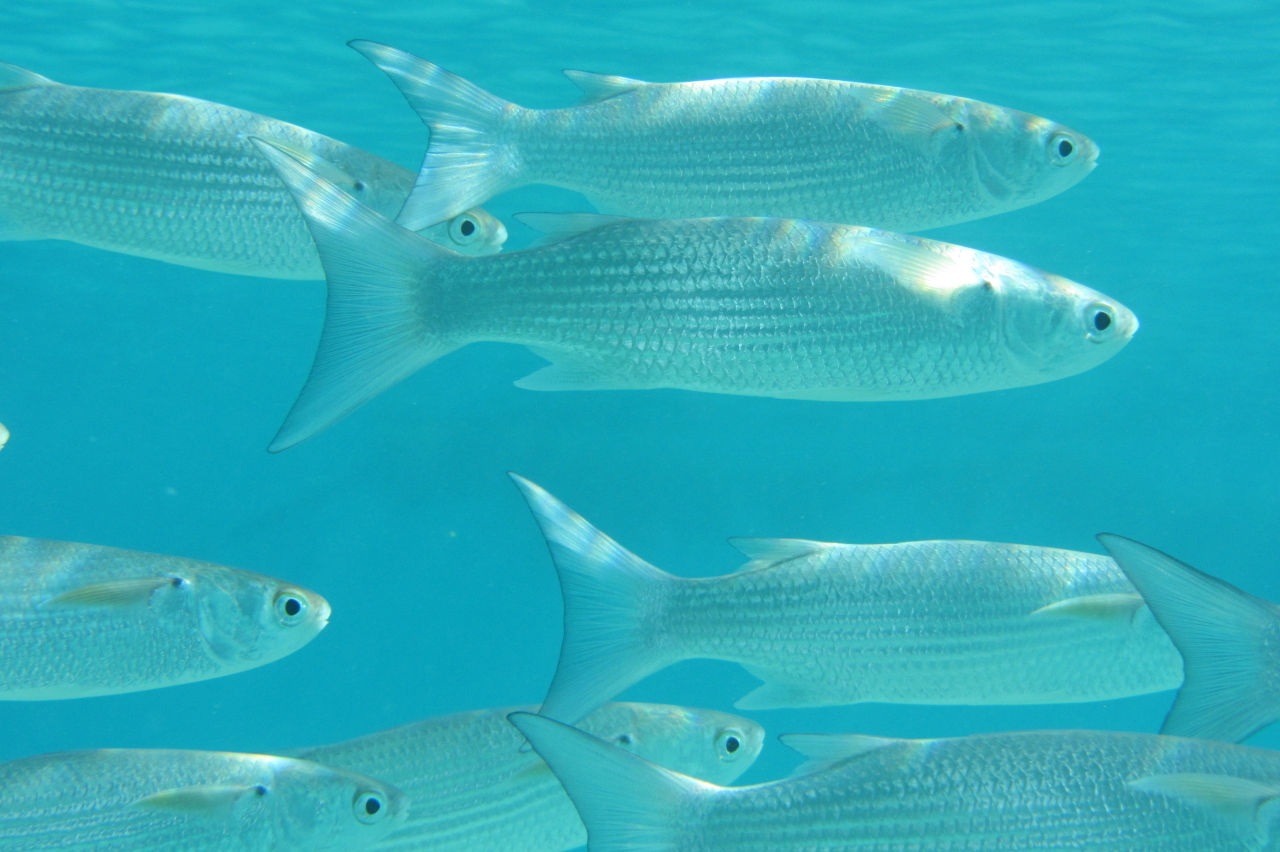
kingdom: Animalia
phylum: Chordata
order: Mugiliformes
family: Mugilidae
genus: Crenimugil
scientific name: Crenimugil crenilabis
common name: Fringelip mullet
